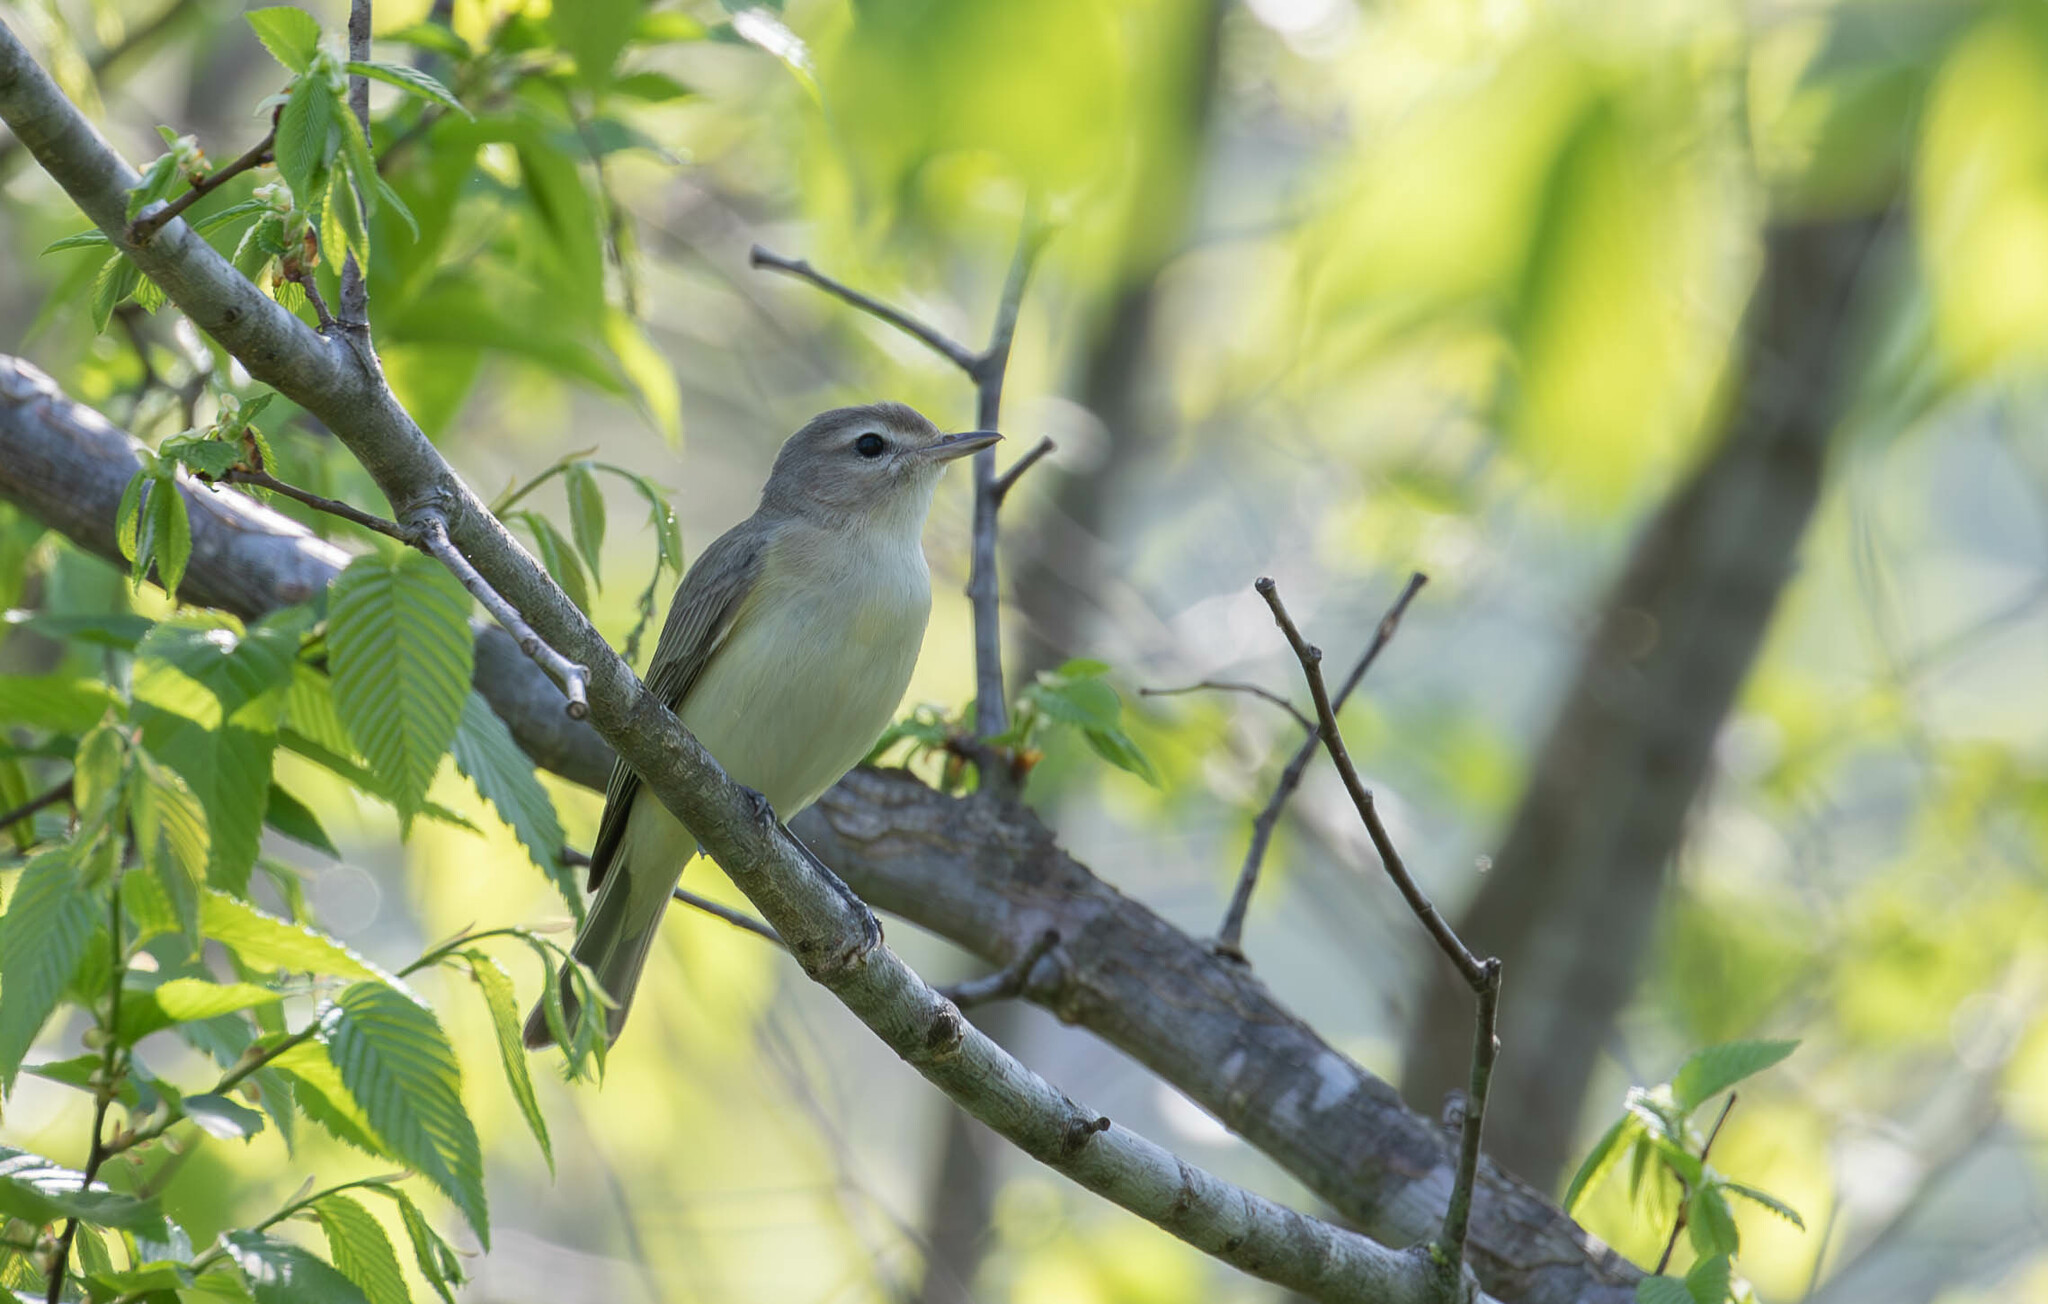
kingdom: Animalia
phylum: Chordata
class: Aves
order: Passeriformes
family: Vireonidae
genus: Vireo
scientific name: Vireo gilvus
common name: Warbling vireo
